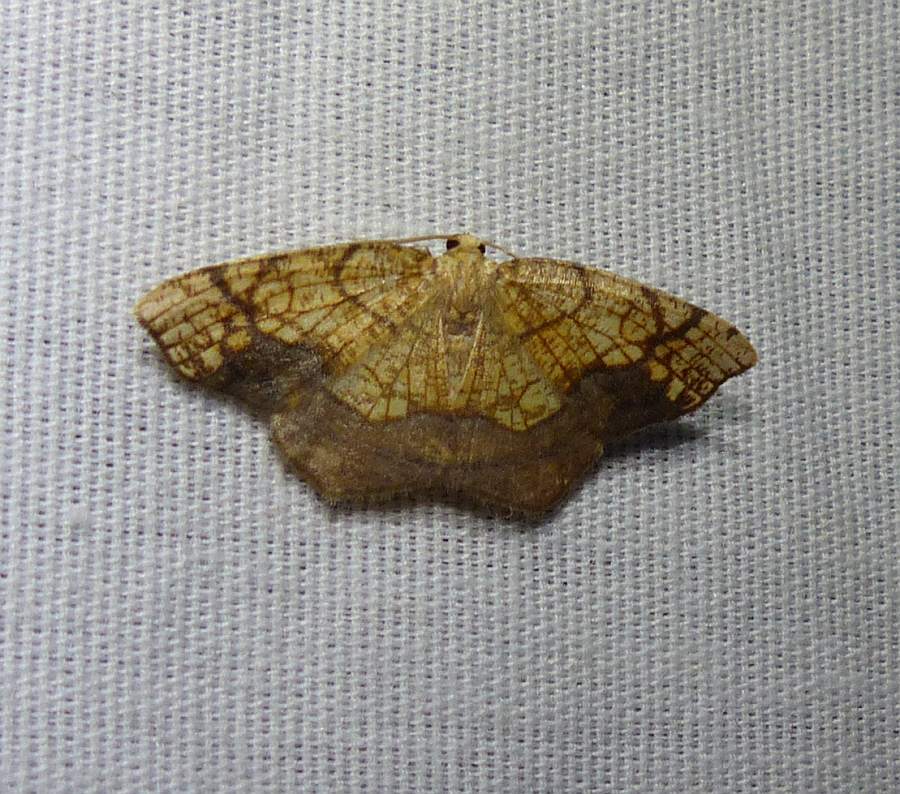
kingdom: Animalia
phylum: Arthropoda
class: Insecta
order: Lepidoptera
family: Geometridae
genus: Nematocampa
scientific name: Nematocampa resistaria
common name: Horned spanworm moth
